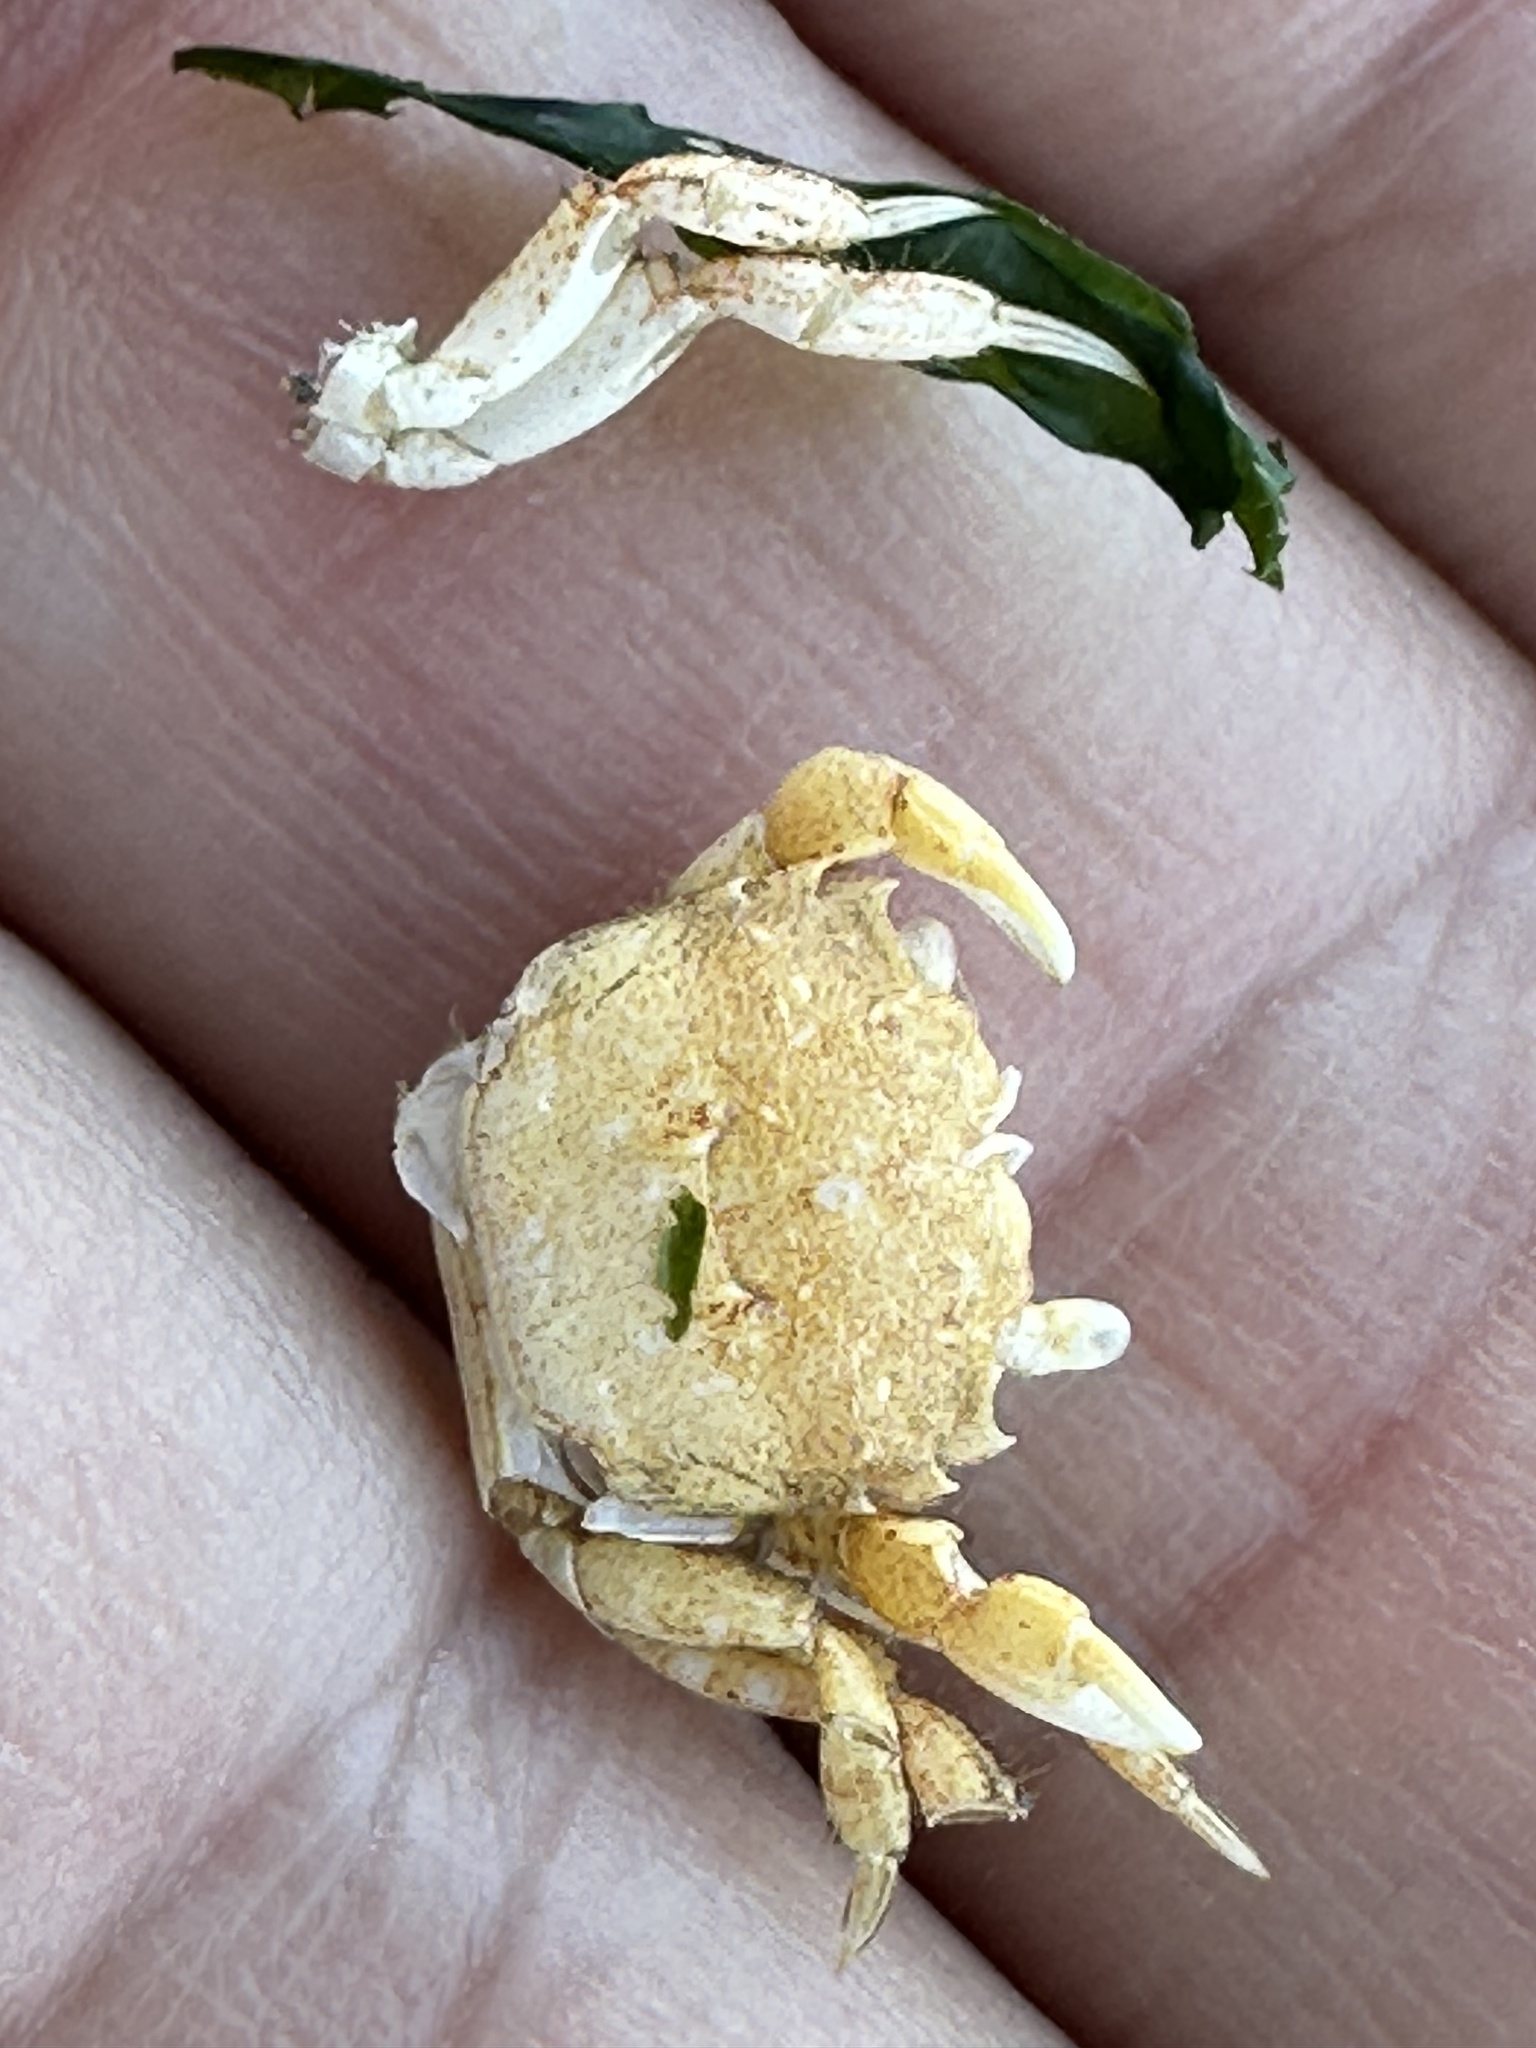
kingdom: Animalia
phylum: Arthropoda
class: Malacostraca
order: Decapoda
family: Varunidae
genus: Hemigrapsus
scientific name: Hemigrapsus oregonensis
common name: Yellow shore crab
